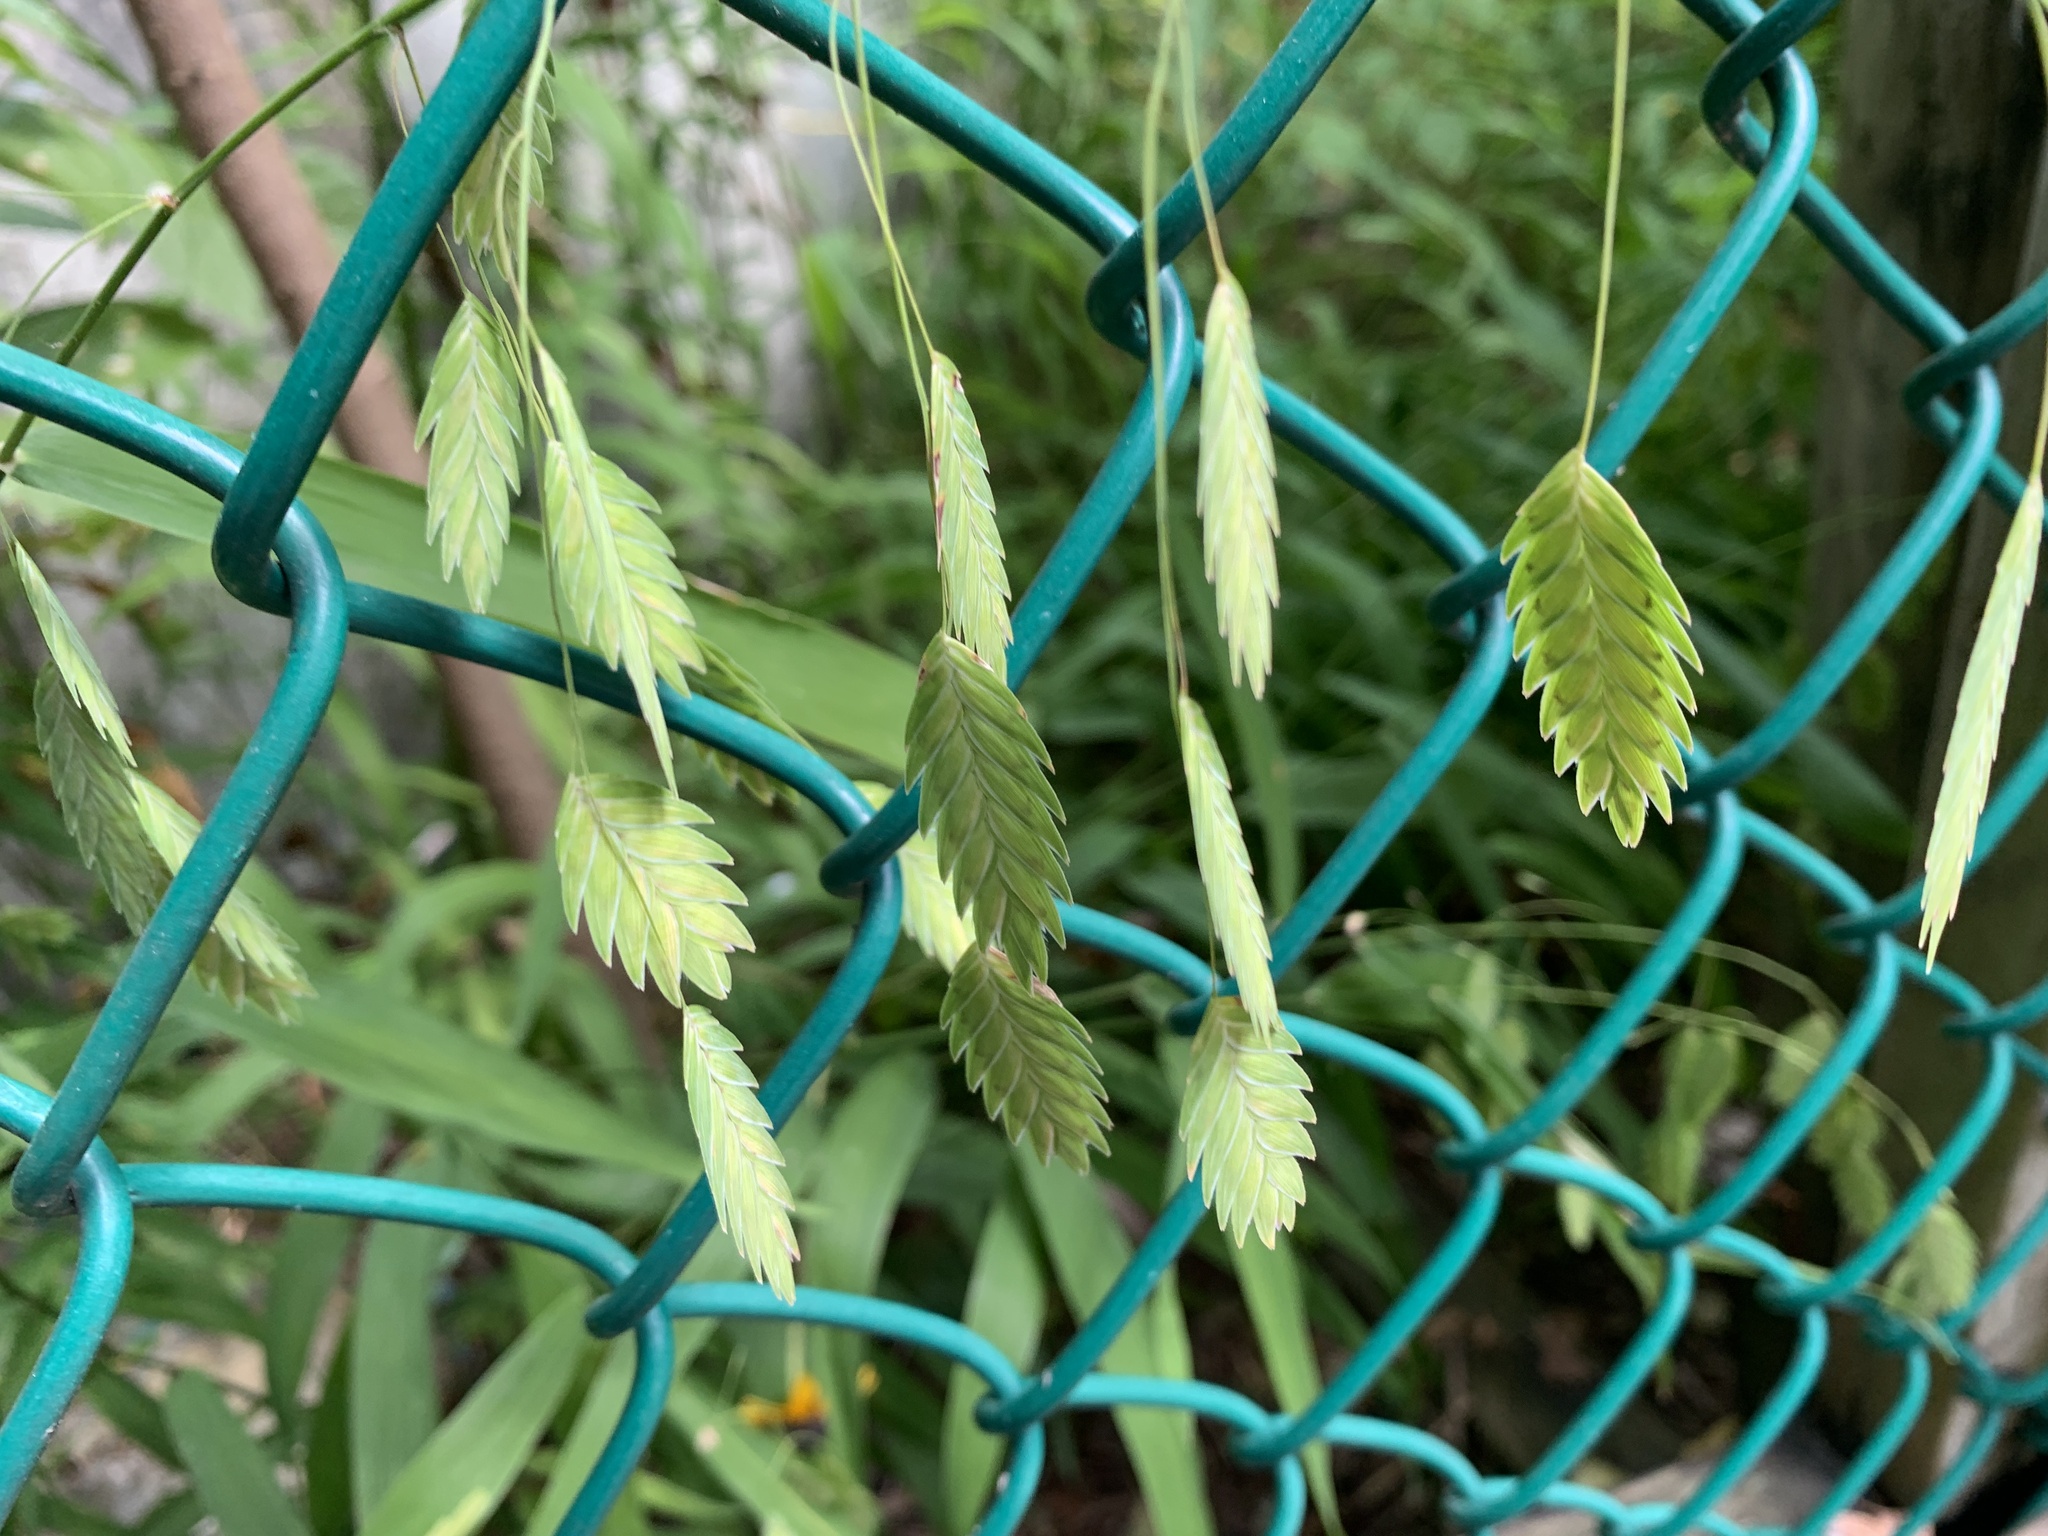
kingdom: Plantae
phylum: Tracheophyta
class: Liliopsida
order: Poales
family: Poaceae
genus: Chasmanthium
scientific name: Chasmanthium latifolium
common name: Broad-leaved chasmanthium
